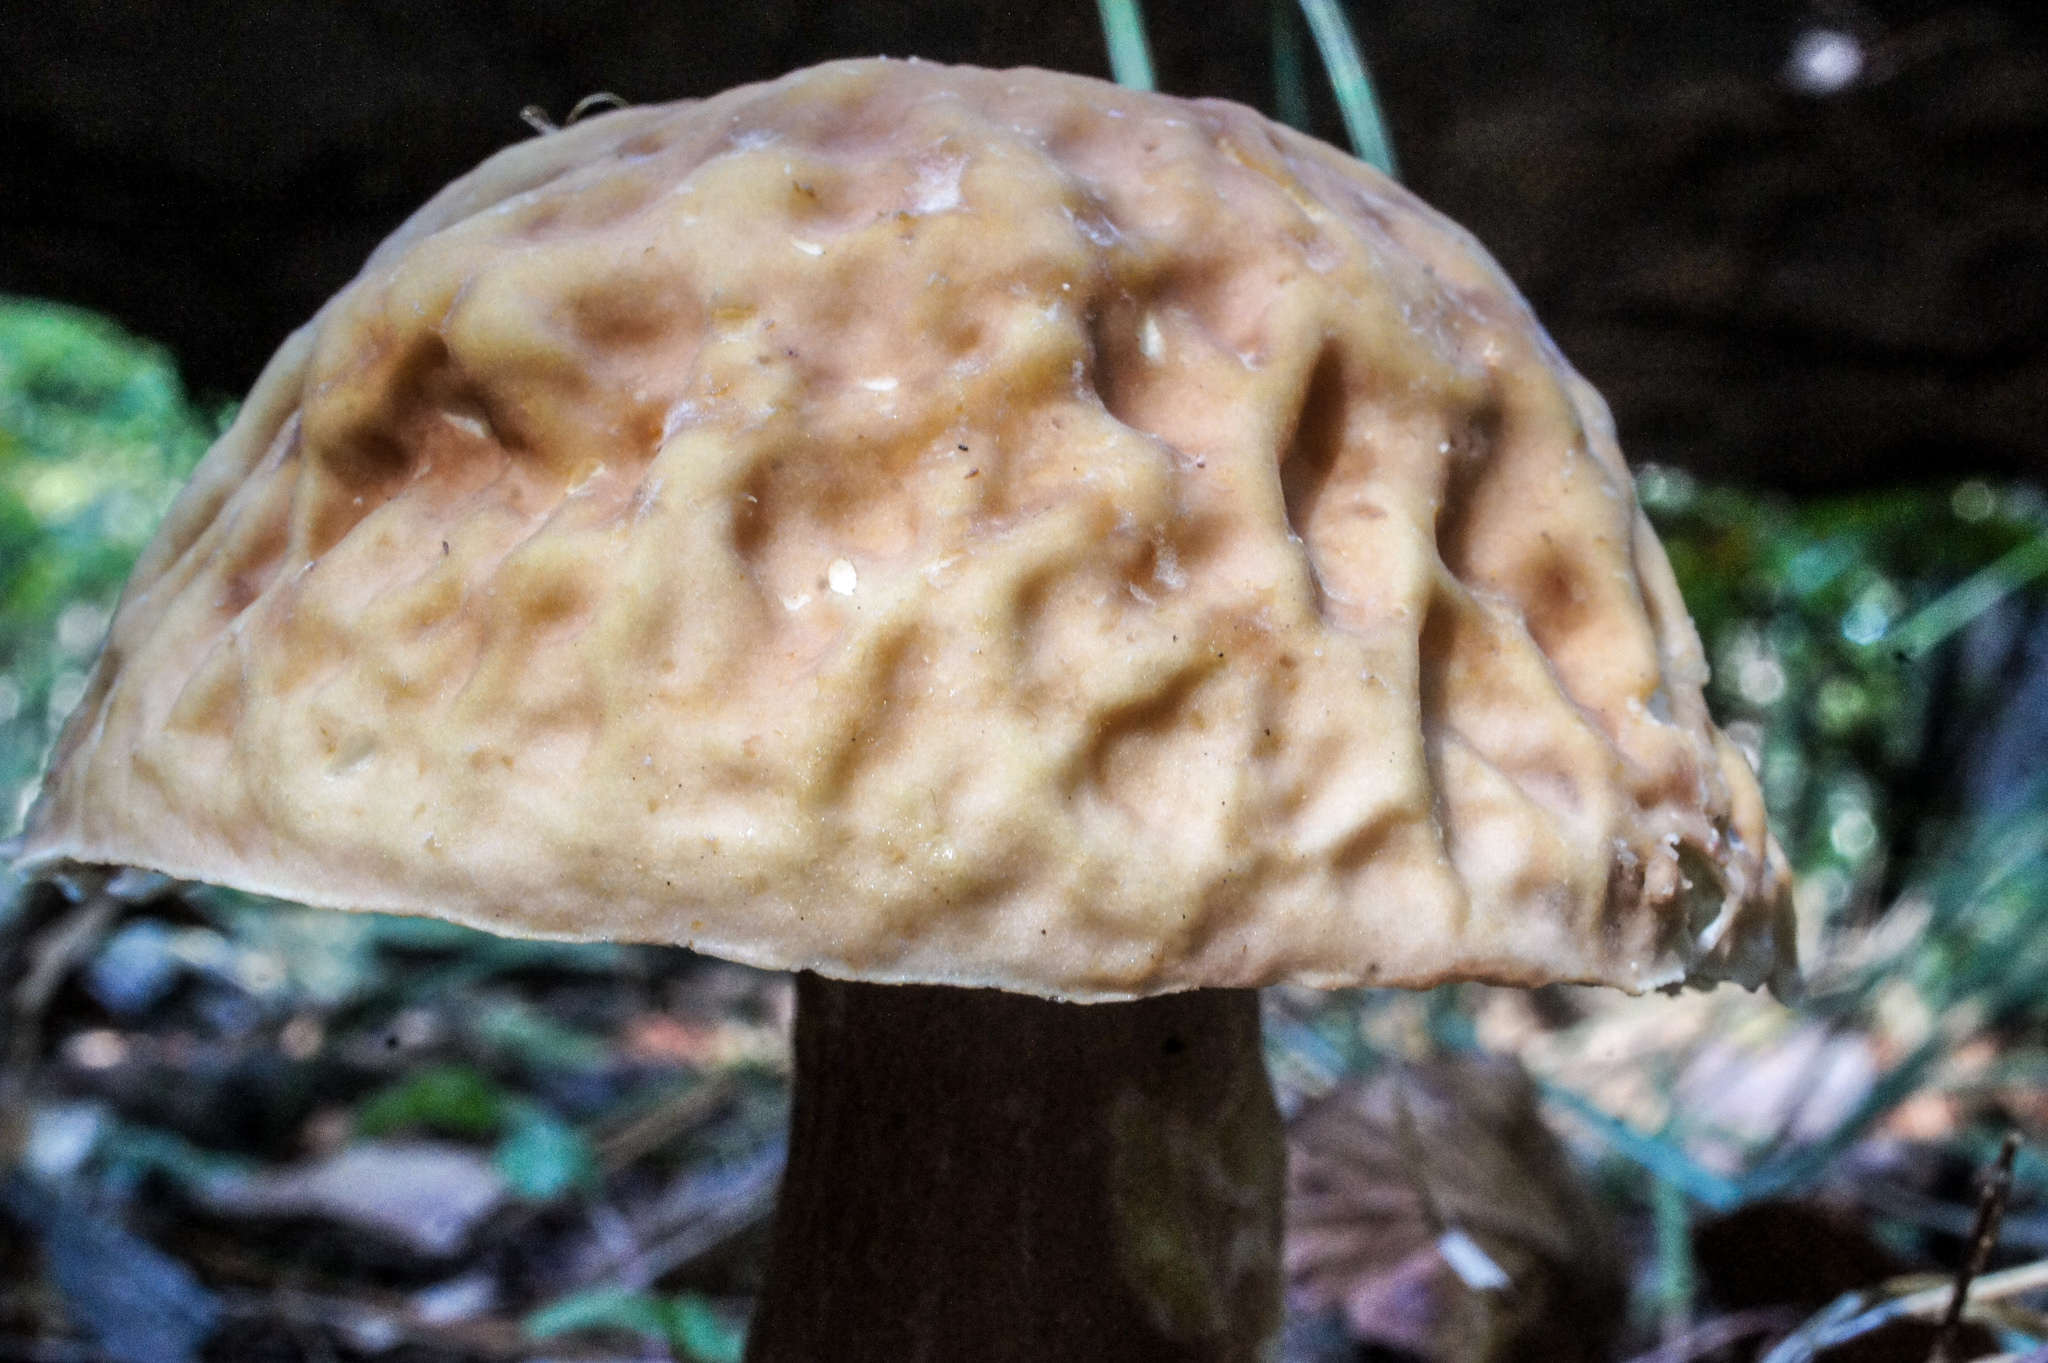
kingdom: Fungi
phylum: Basidiomycota
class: Agaricomycetes
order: Boletales
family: Boletaceae
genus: Xanthoconium
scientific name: Xanthoconium separans
